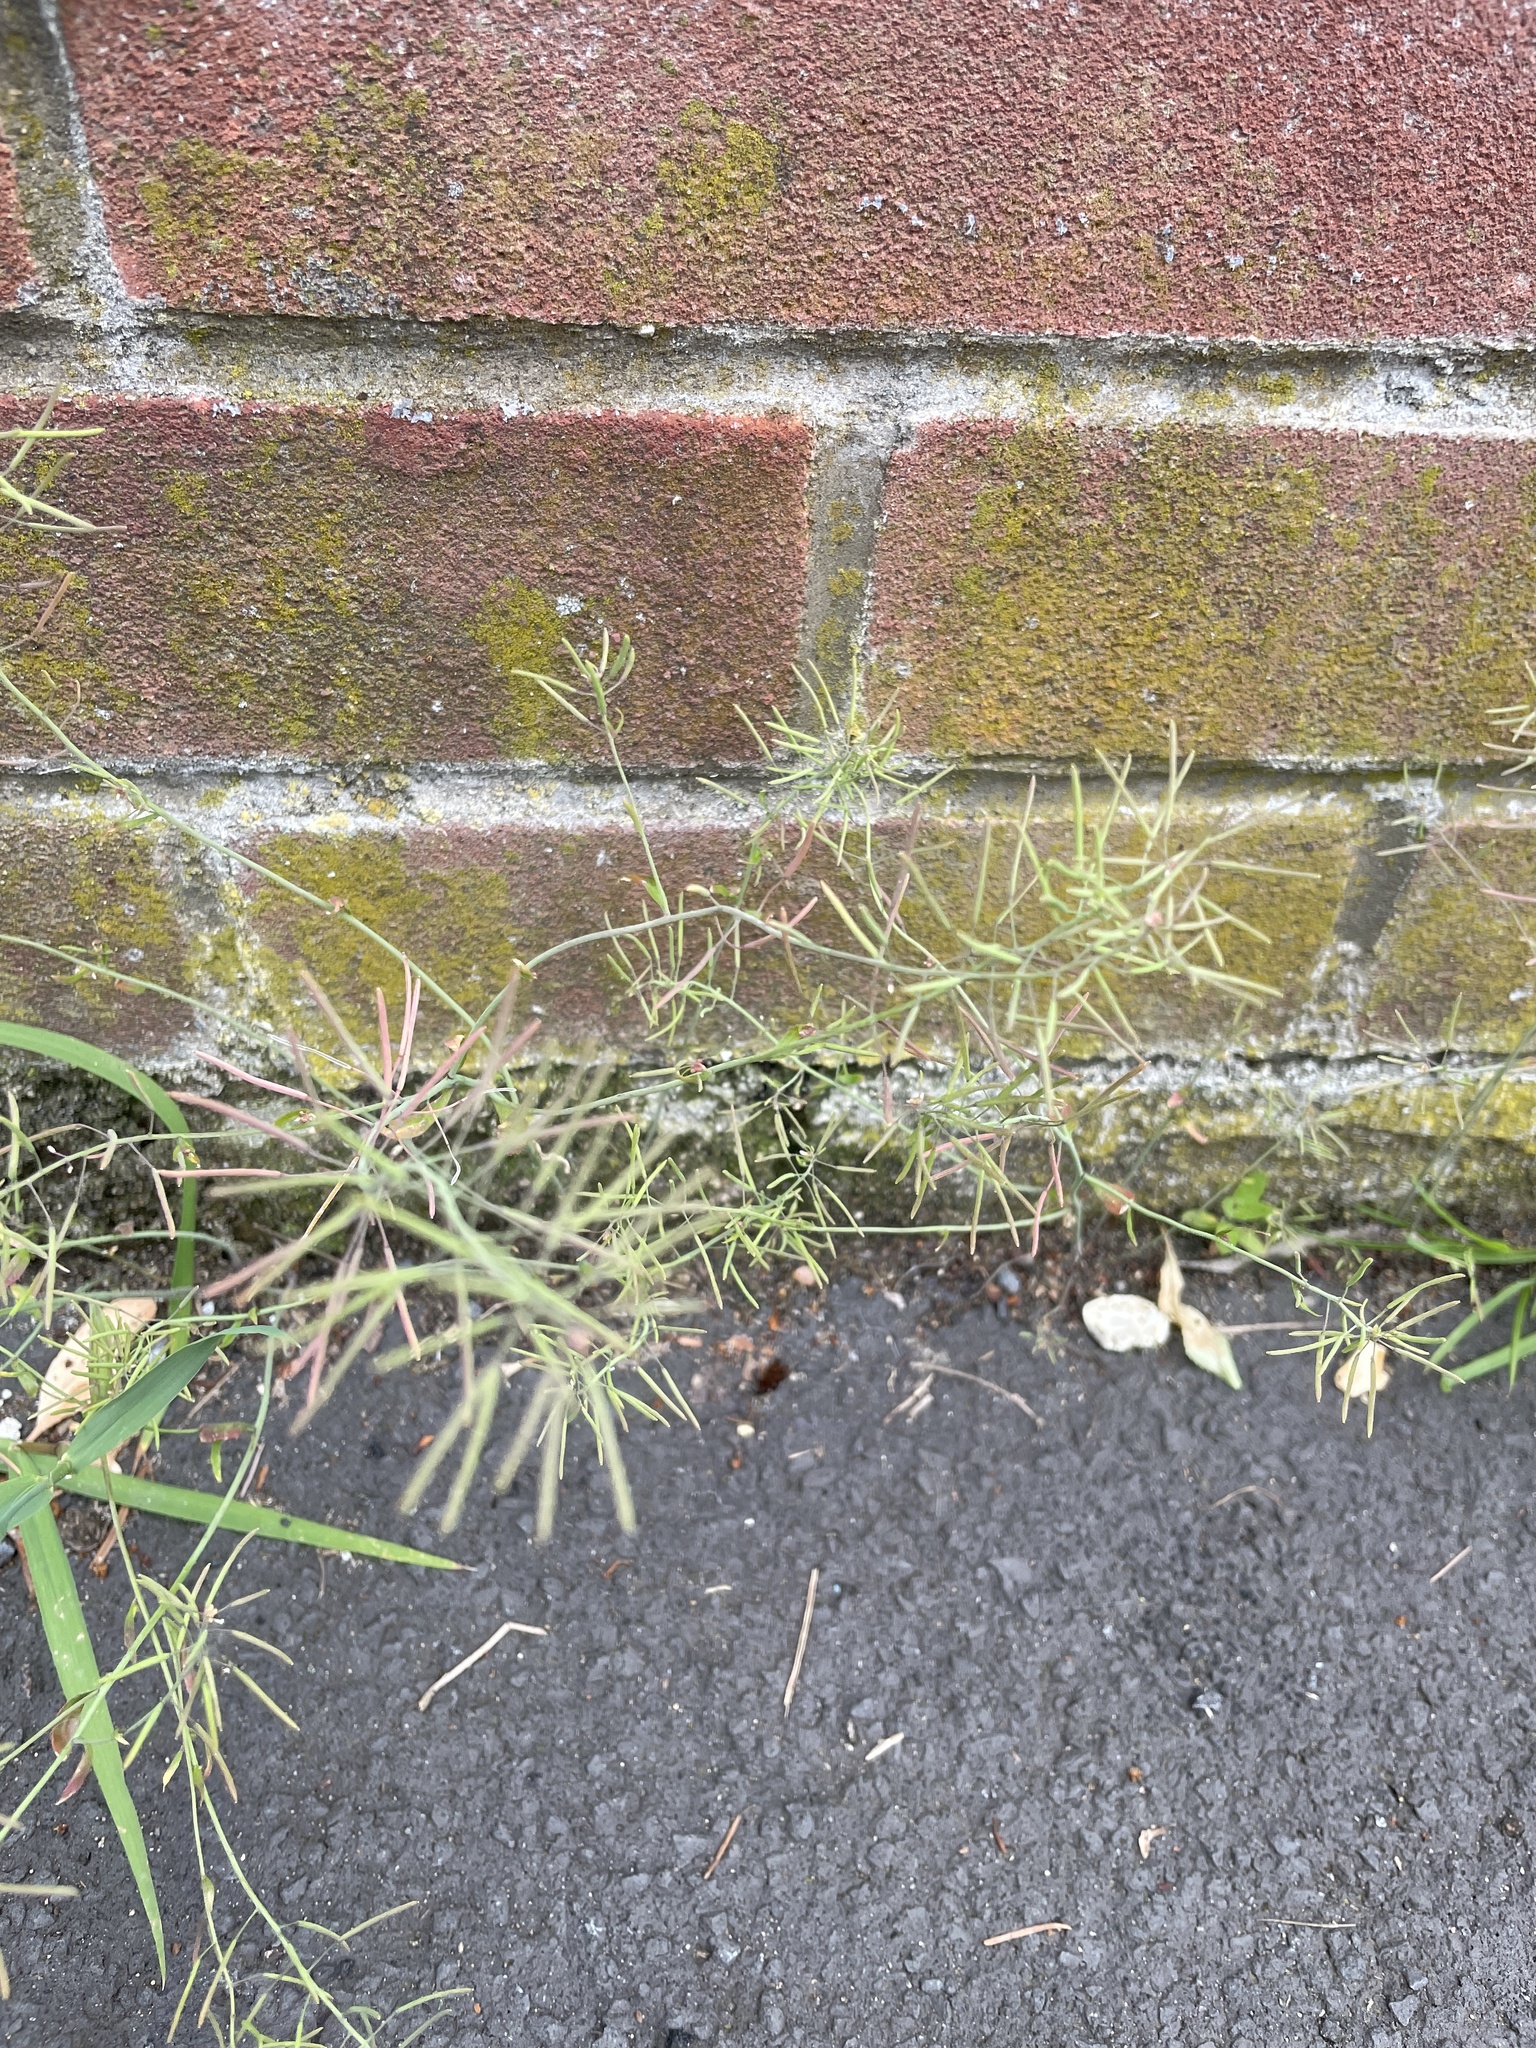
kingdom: Plantae
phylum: Tracheophyta
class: Magnoliopsida
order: Brassicales
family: Brassicaceae
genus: Arabidopsis
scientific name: Arabidopsis thaliana
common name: Thale cress
